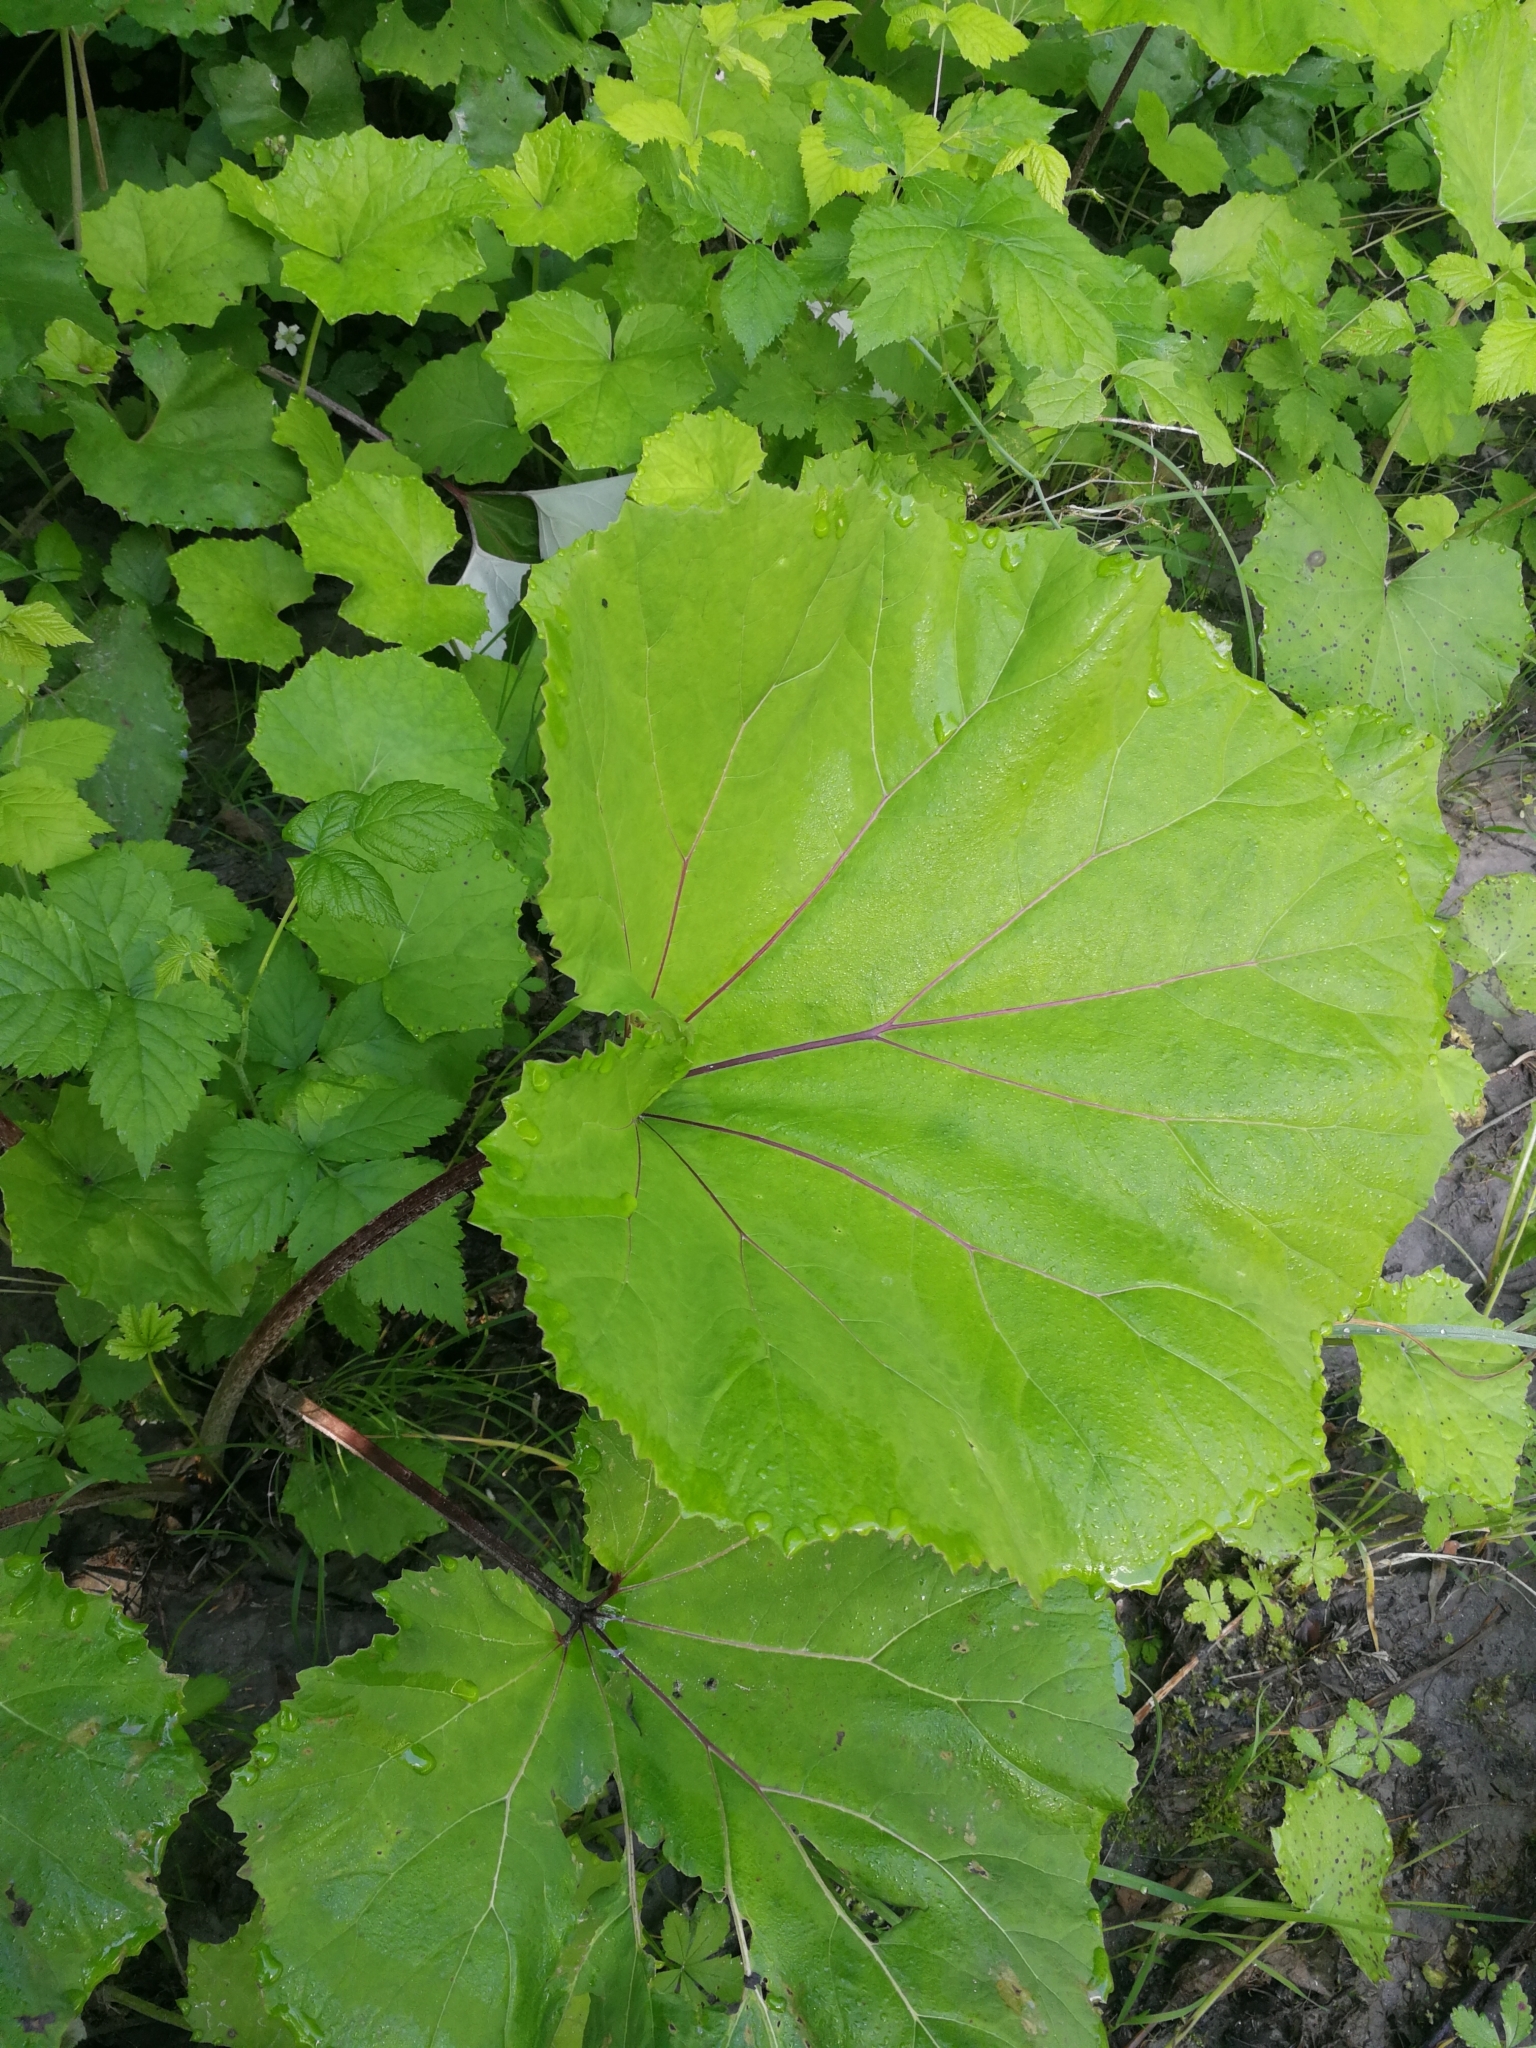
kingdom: Plantae
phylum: Tracheophyta
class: Magnoliopsida
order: Asterales
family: Asteraceae
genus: Petasites
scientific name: Petasites hybridus
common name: Butterbur
